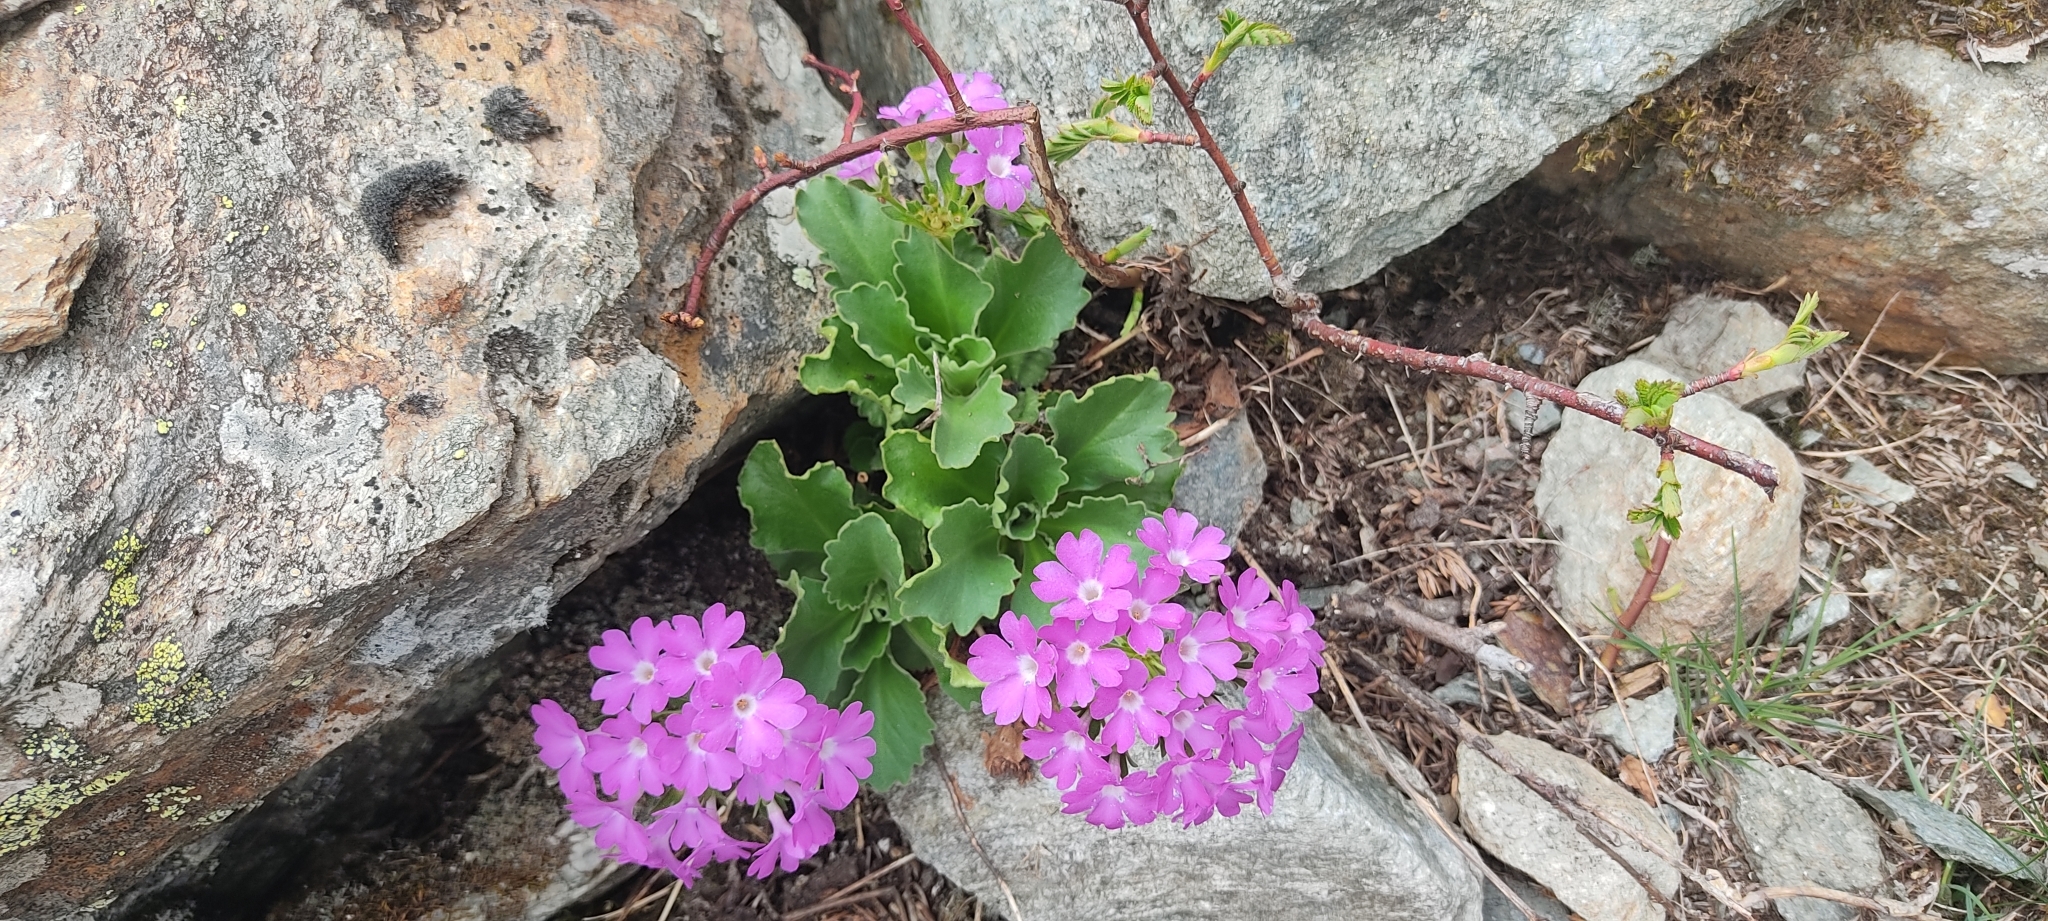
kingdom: Plantae
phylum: Tracheophyta
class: Magnoliopsida
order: Ericales
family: Primulaceae
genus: Primula
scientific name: Primula hirsuta
